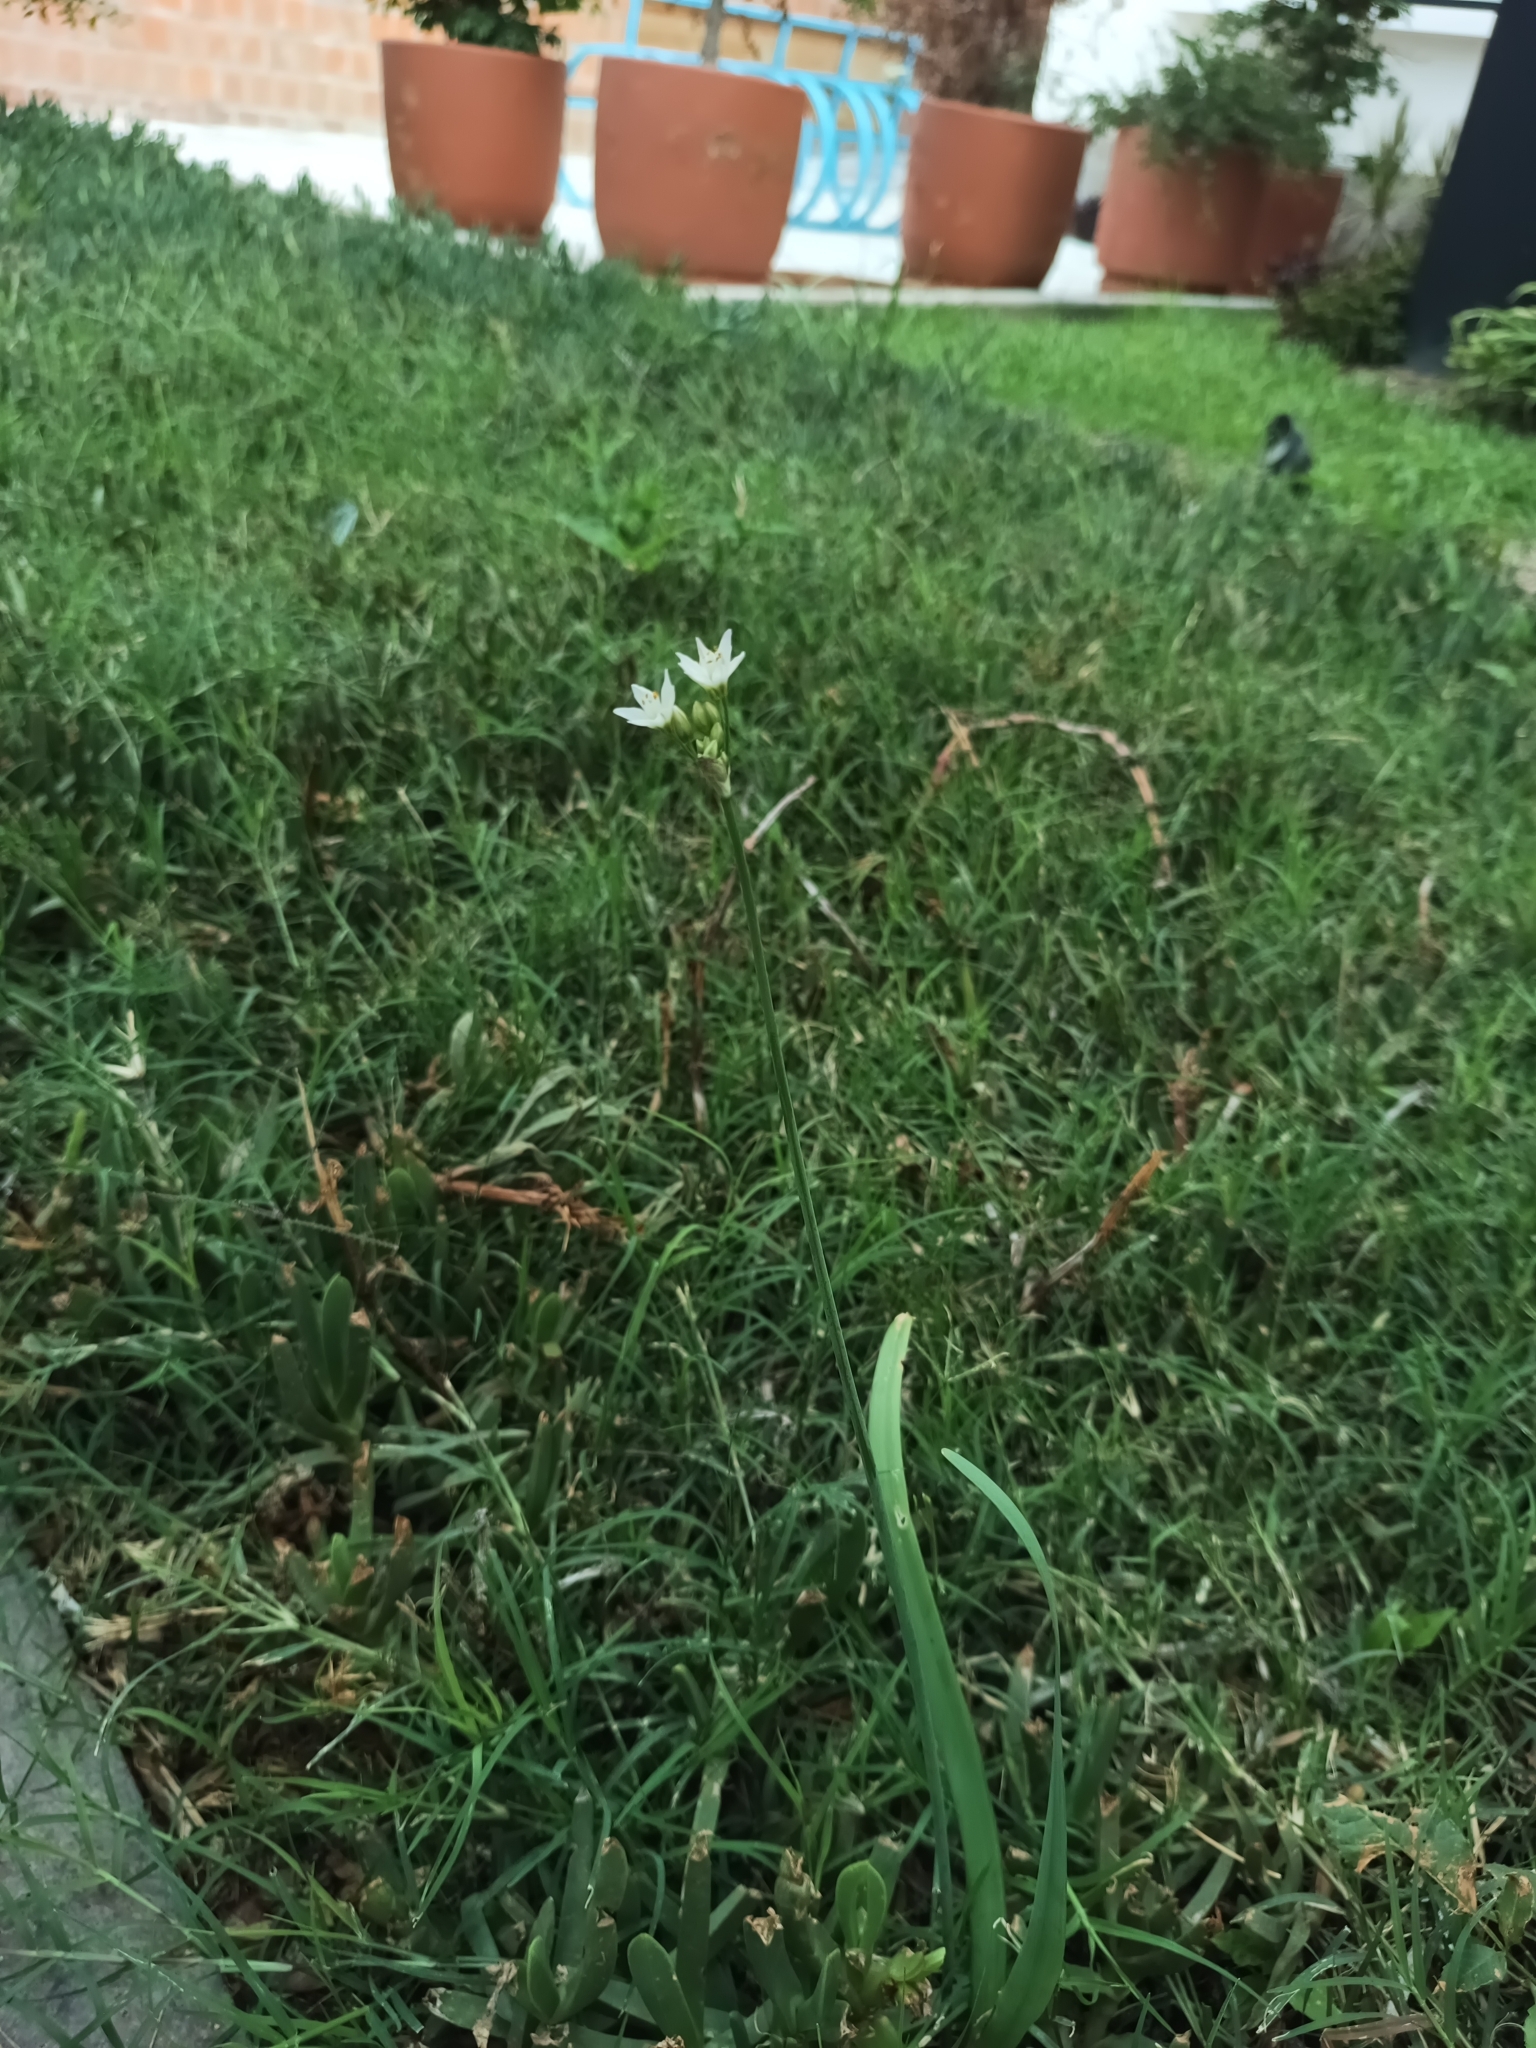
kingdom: Plantae
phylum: Tracheophyta
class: Liliopsida
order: Asparagales
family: Amaryllidaceae
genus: Nothoscordum
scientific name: Nothoscordum bivalve
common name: Crow-poison
